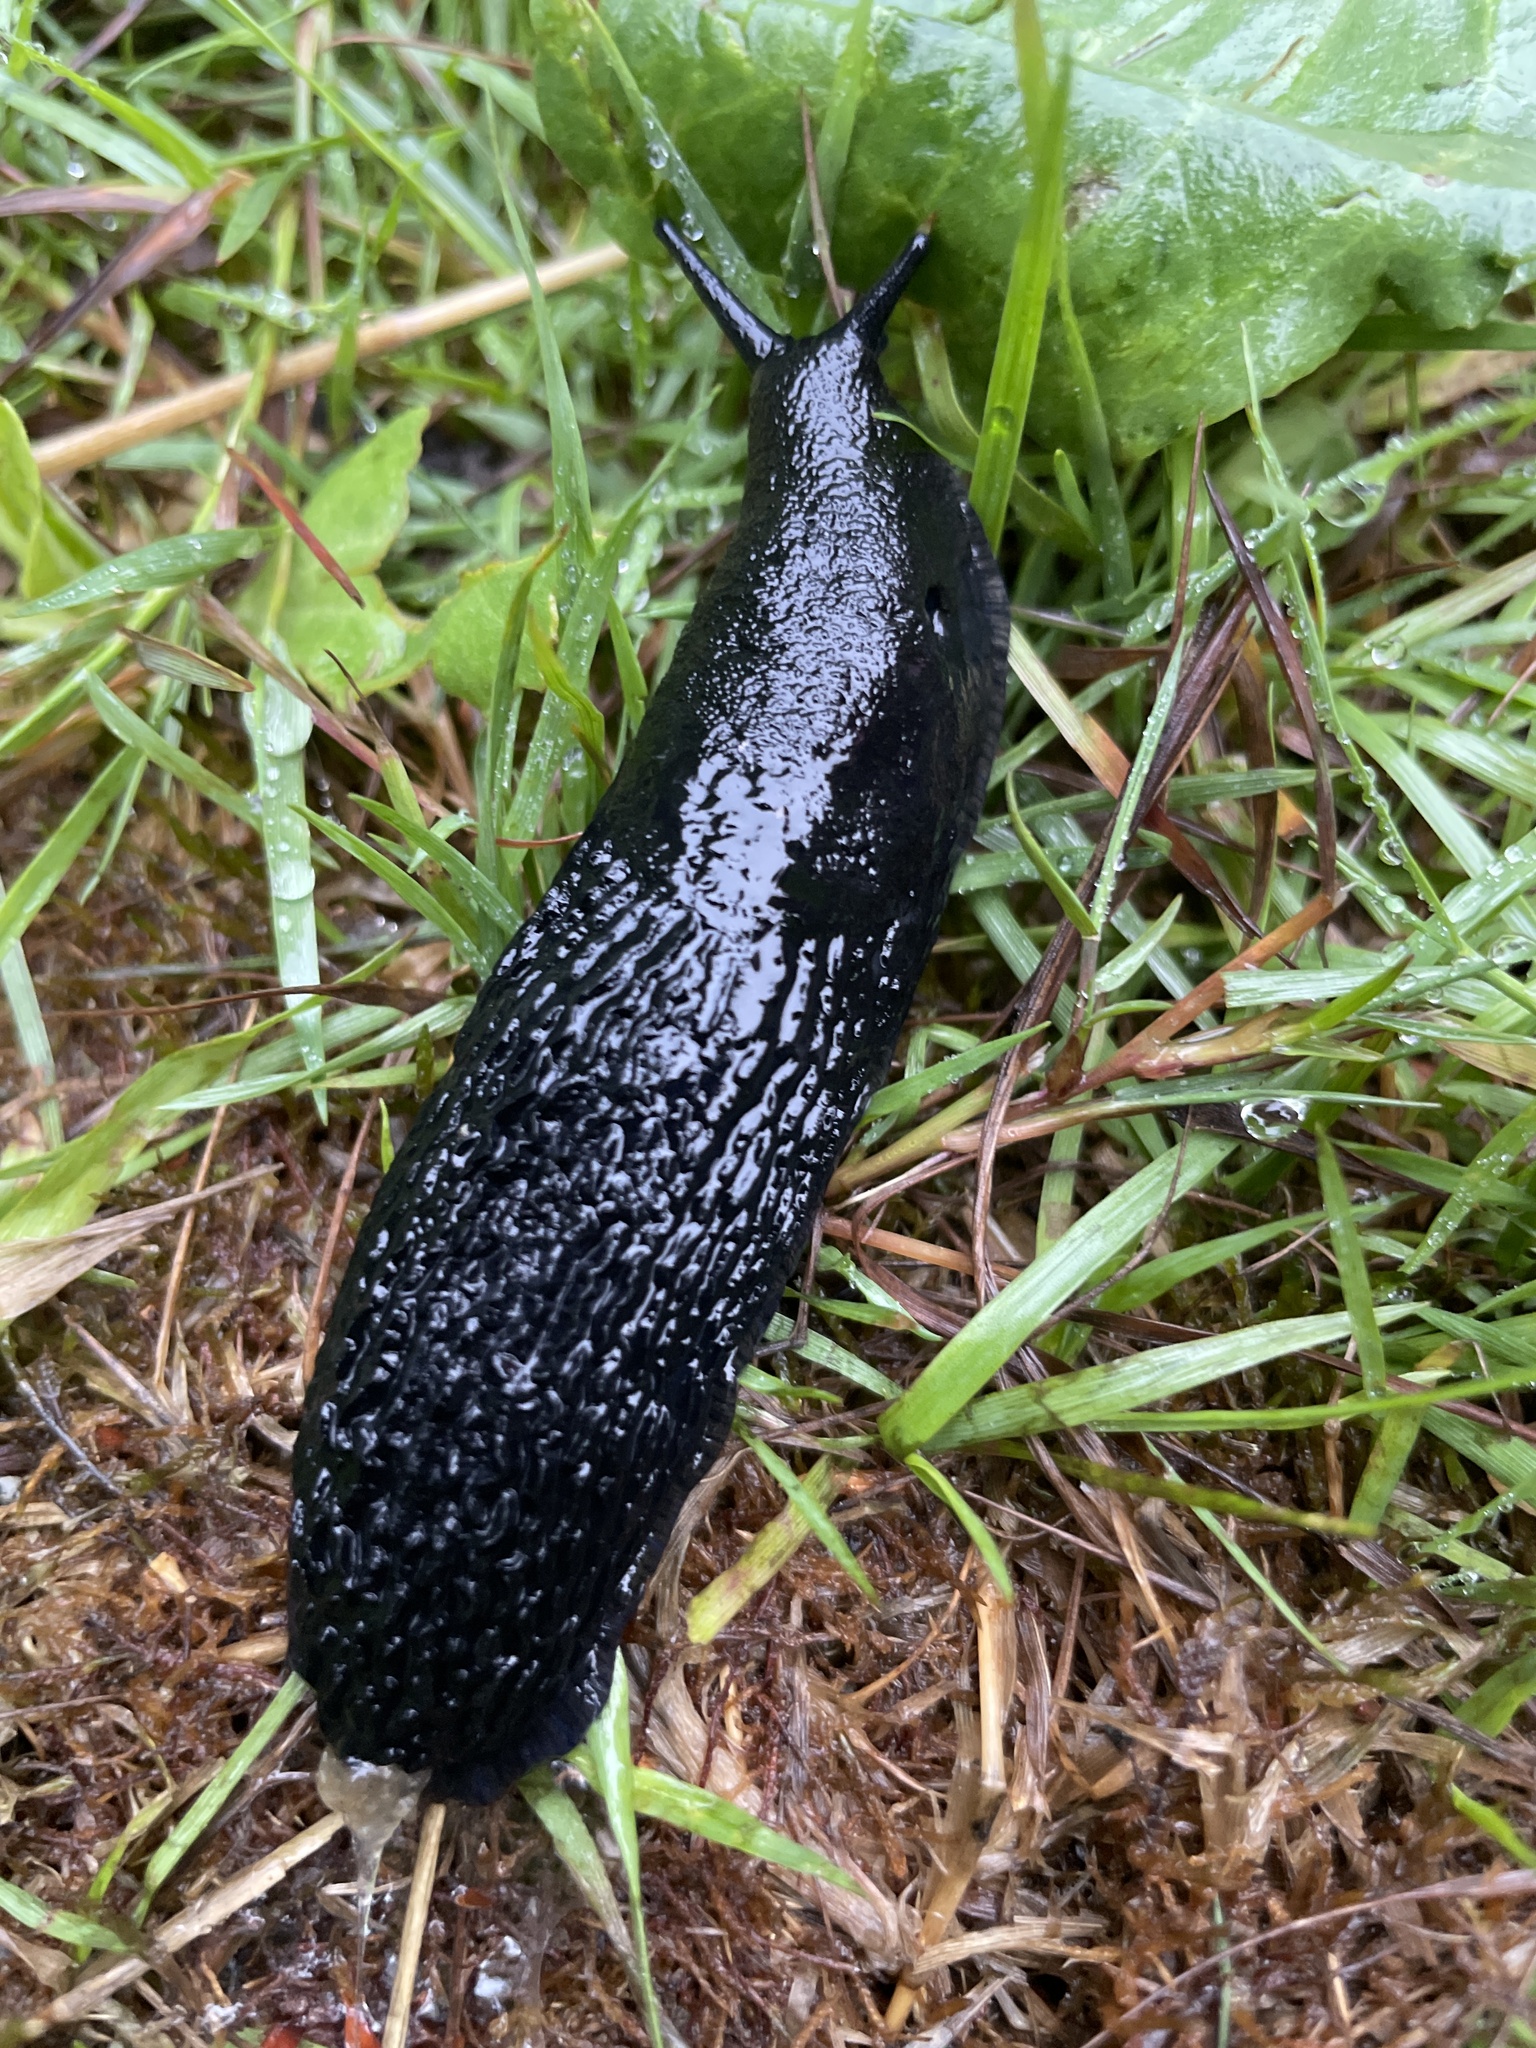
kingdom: Animalia
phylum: Mollusca
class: Gastropoda
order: Stylommatophora
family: Arionidae
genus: Arion
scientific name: Arion
